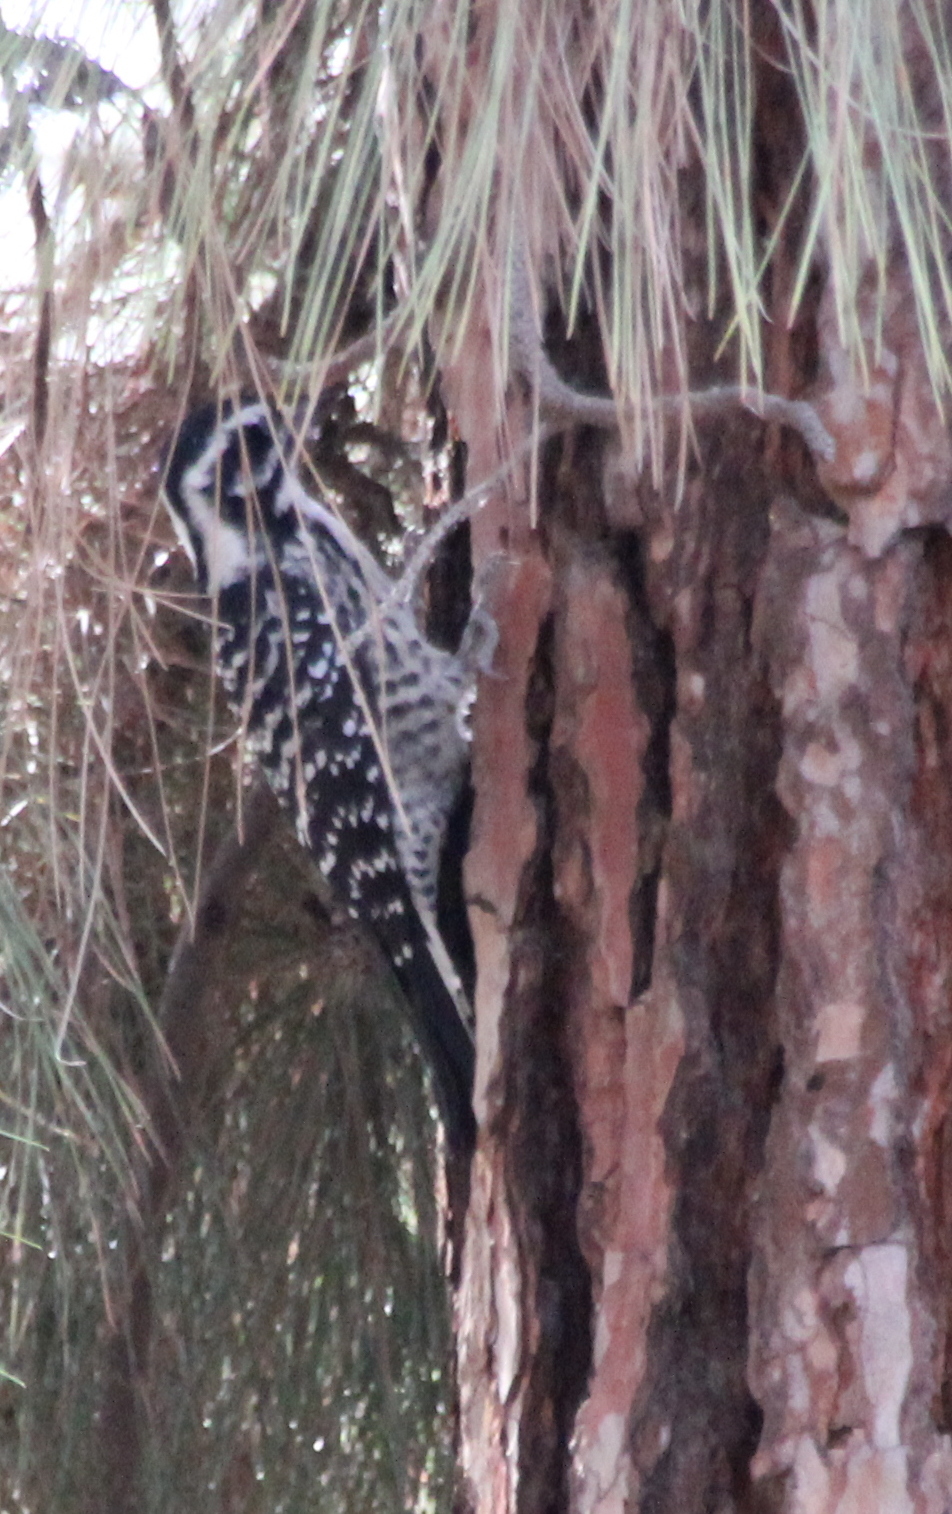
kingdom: Animalia
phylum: Chordata
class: Aves
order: Piciformes
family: Picidae
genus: Dryobates
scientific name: Dryobates nuttallii
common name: Nuttall's woodpecker
